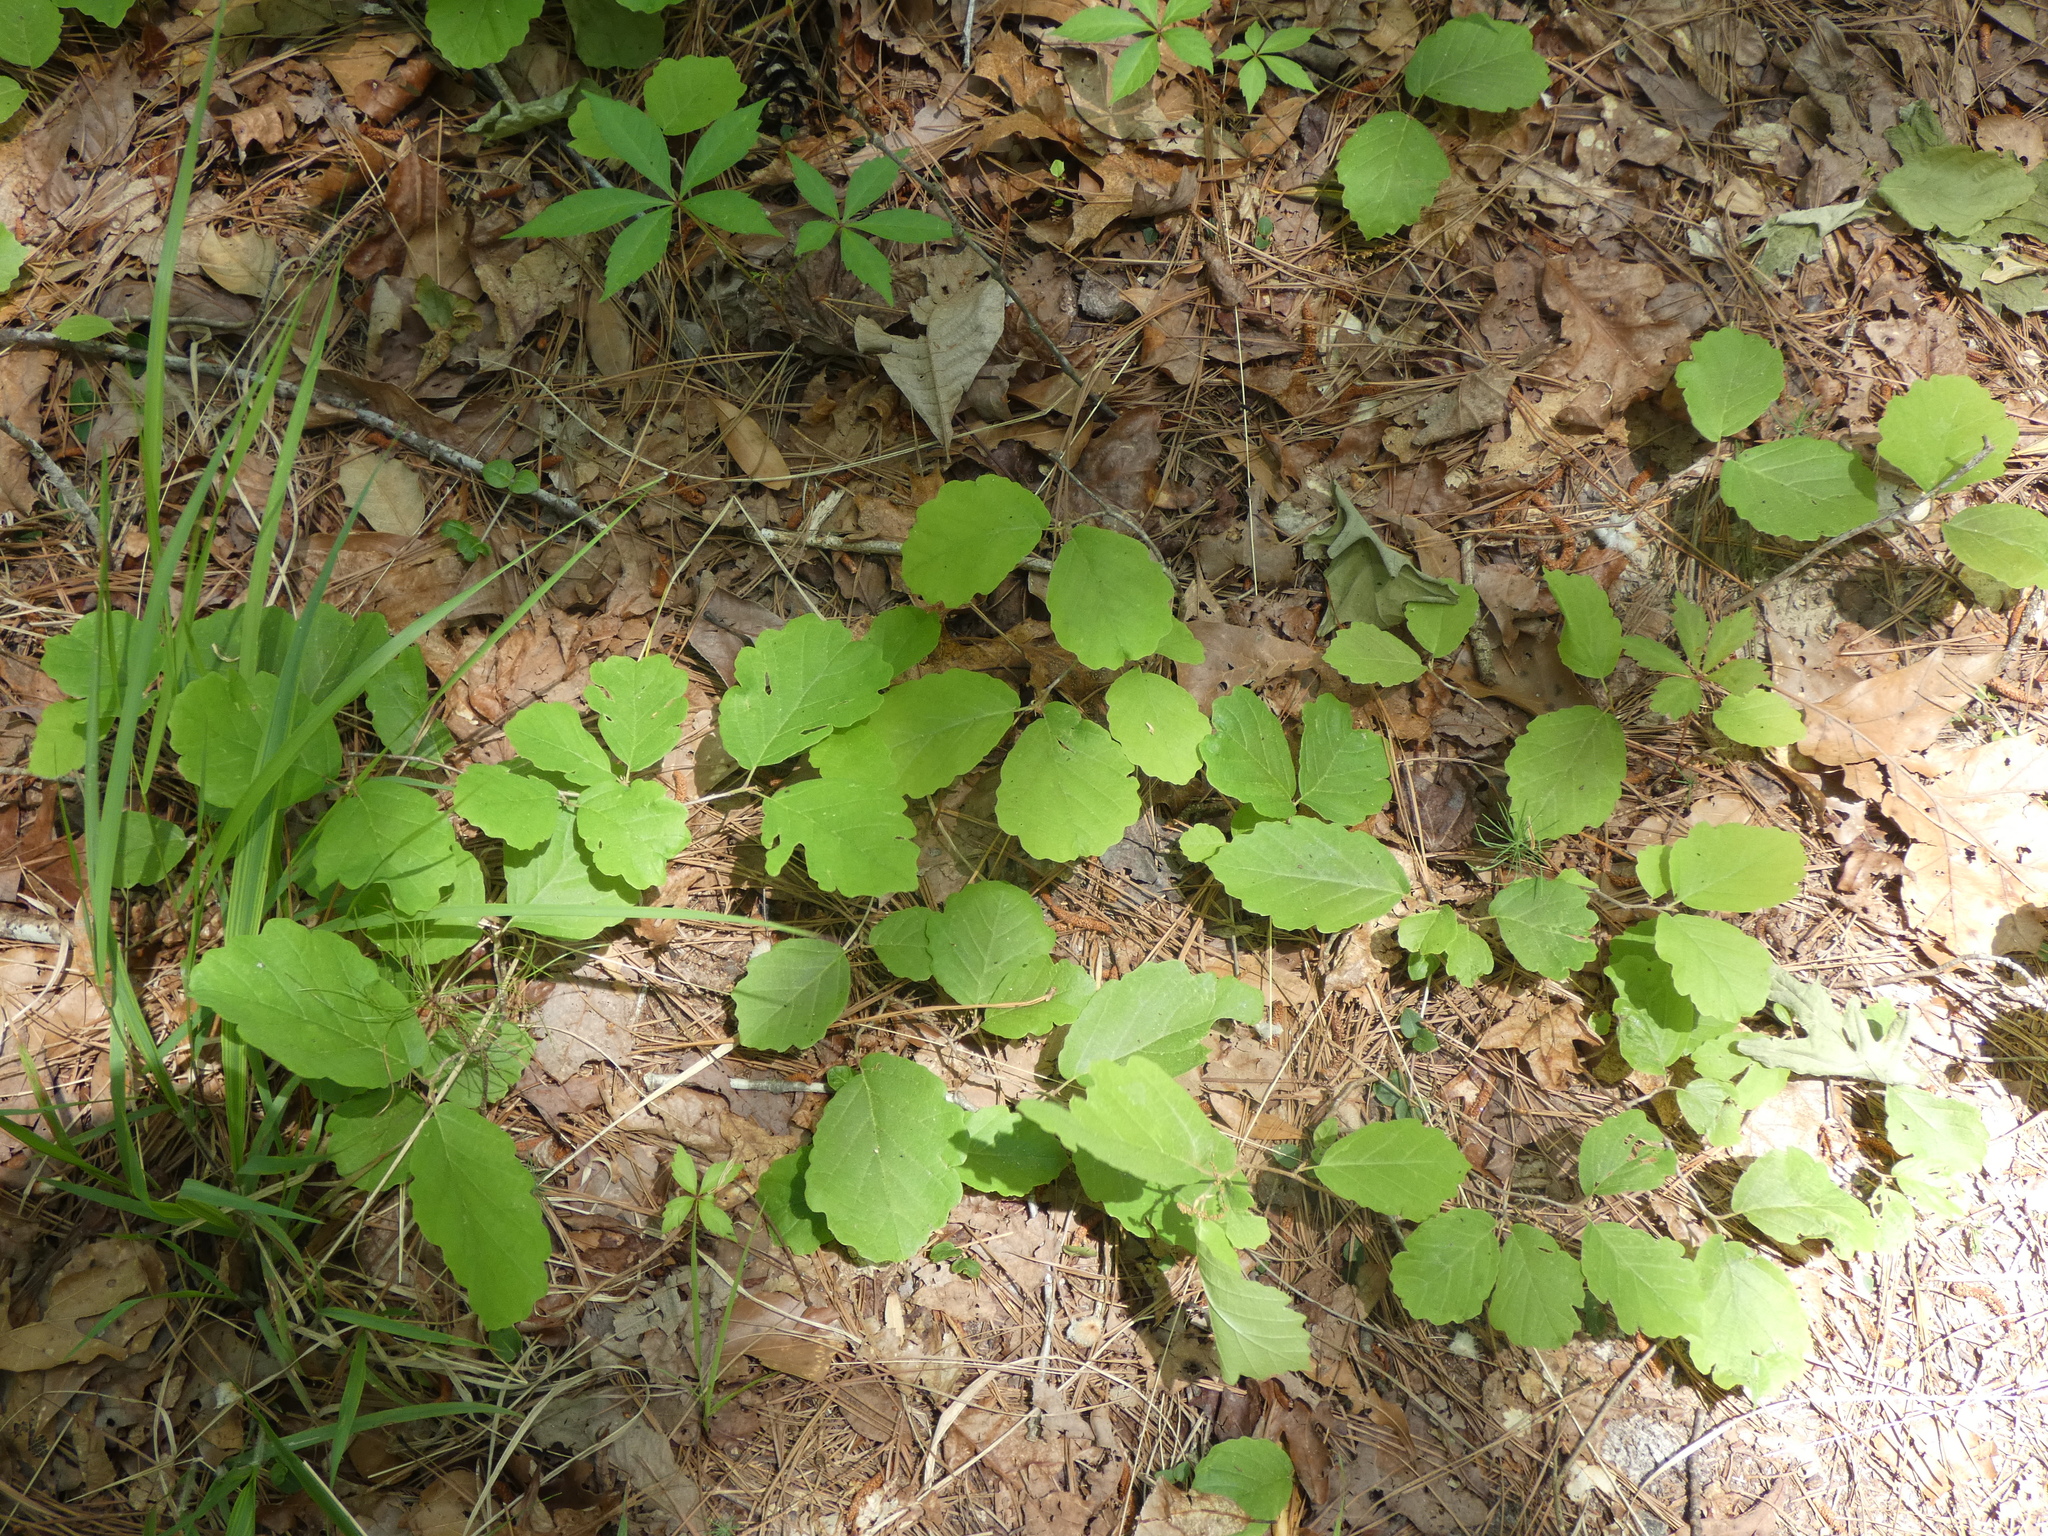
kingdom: Plantae
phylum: Tracheophyta
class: Magnoliopsida
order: Saxifragales
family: Hamamelidaceae
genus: Hamamelis
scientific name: Hamamelis virginiana
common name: Witch-hazel
